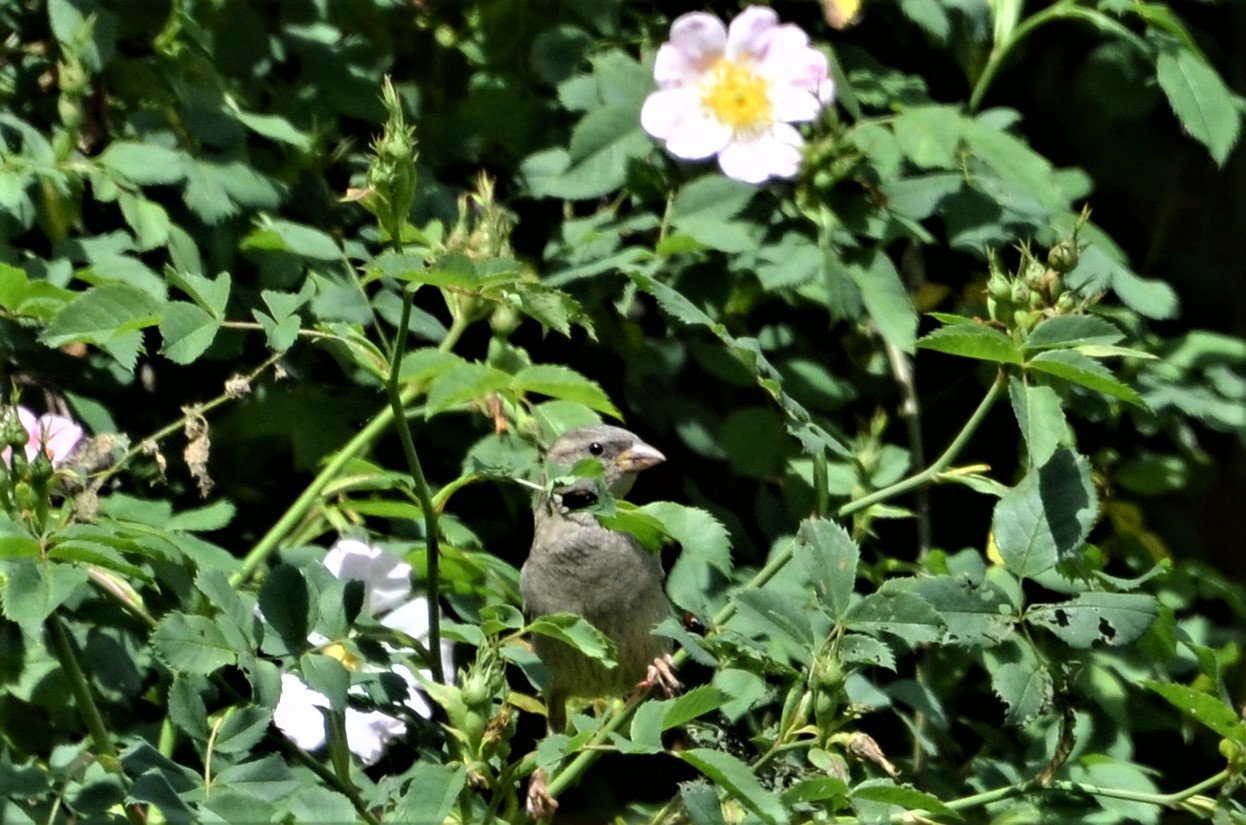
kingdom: Animalia
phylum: Chordata
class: Aves
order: Passeriformes
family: Passeridae
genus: Passer
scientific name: Passer domesticus
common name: House sparrow
